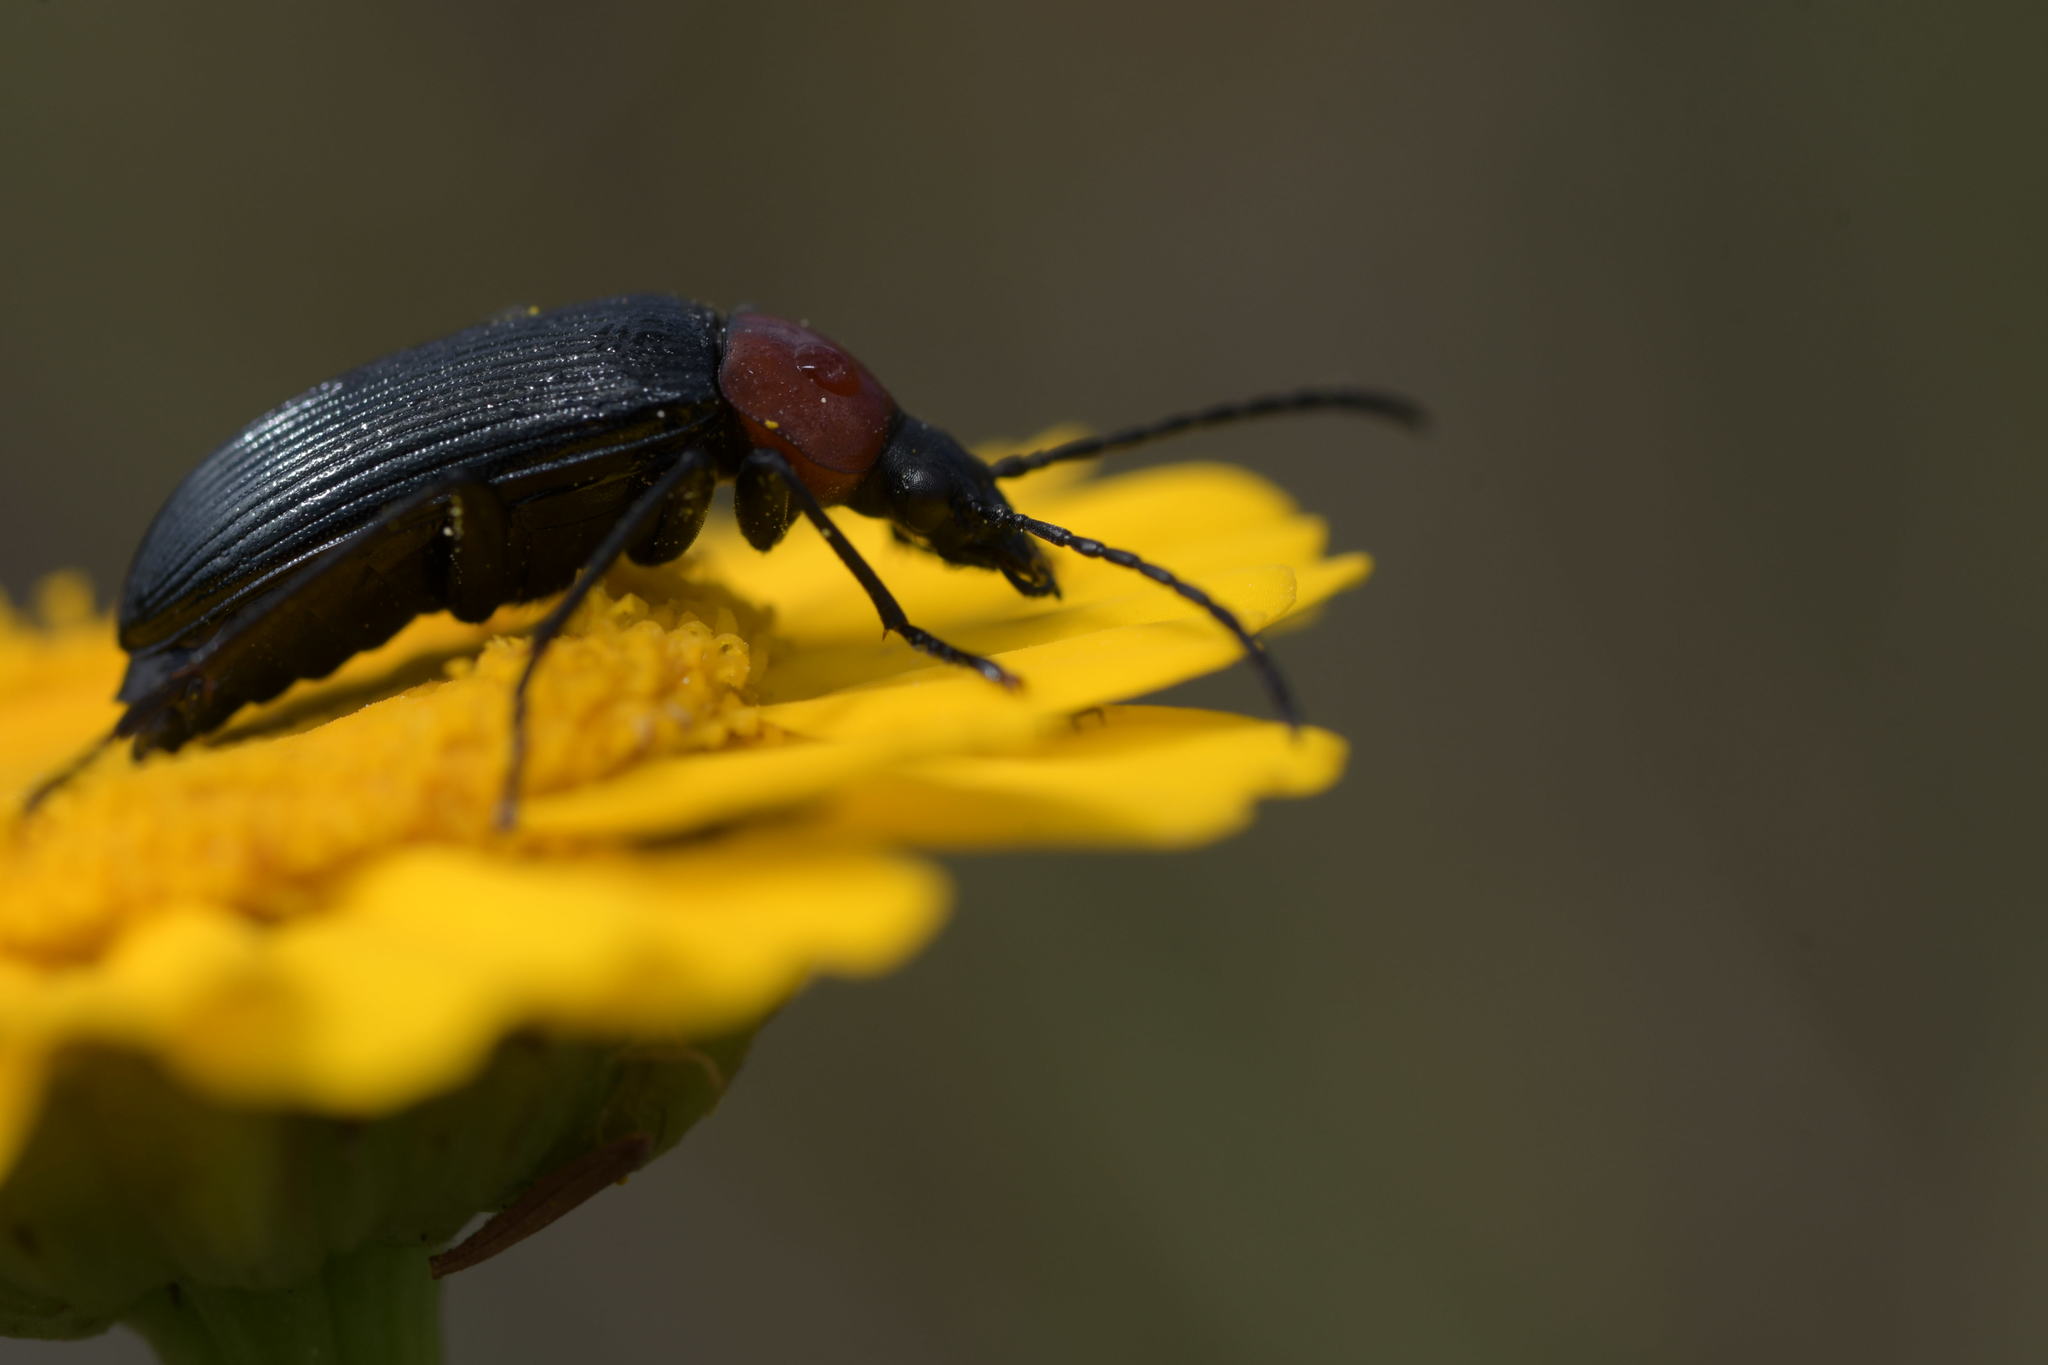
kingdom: Animalia
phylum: Arthropoda
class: Insecta
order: Coleoptera
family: Tenebrionidae
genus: Heliotaurus
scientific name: Heliotaurus ruficollis
